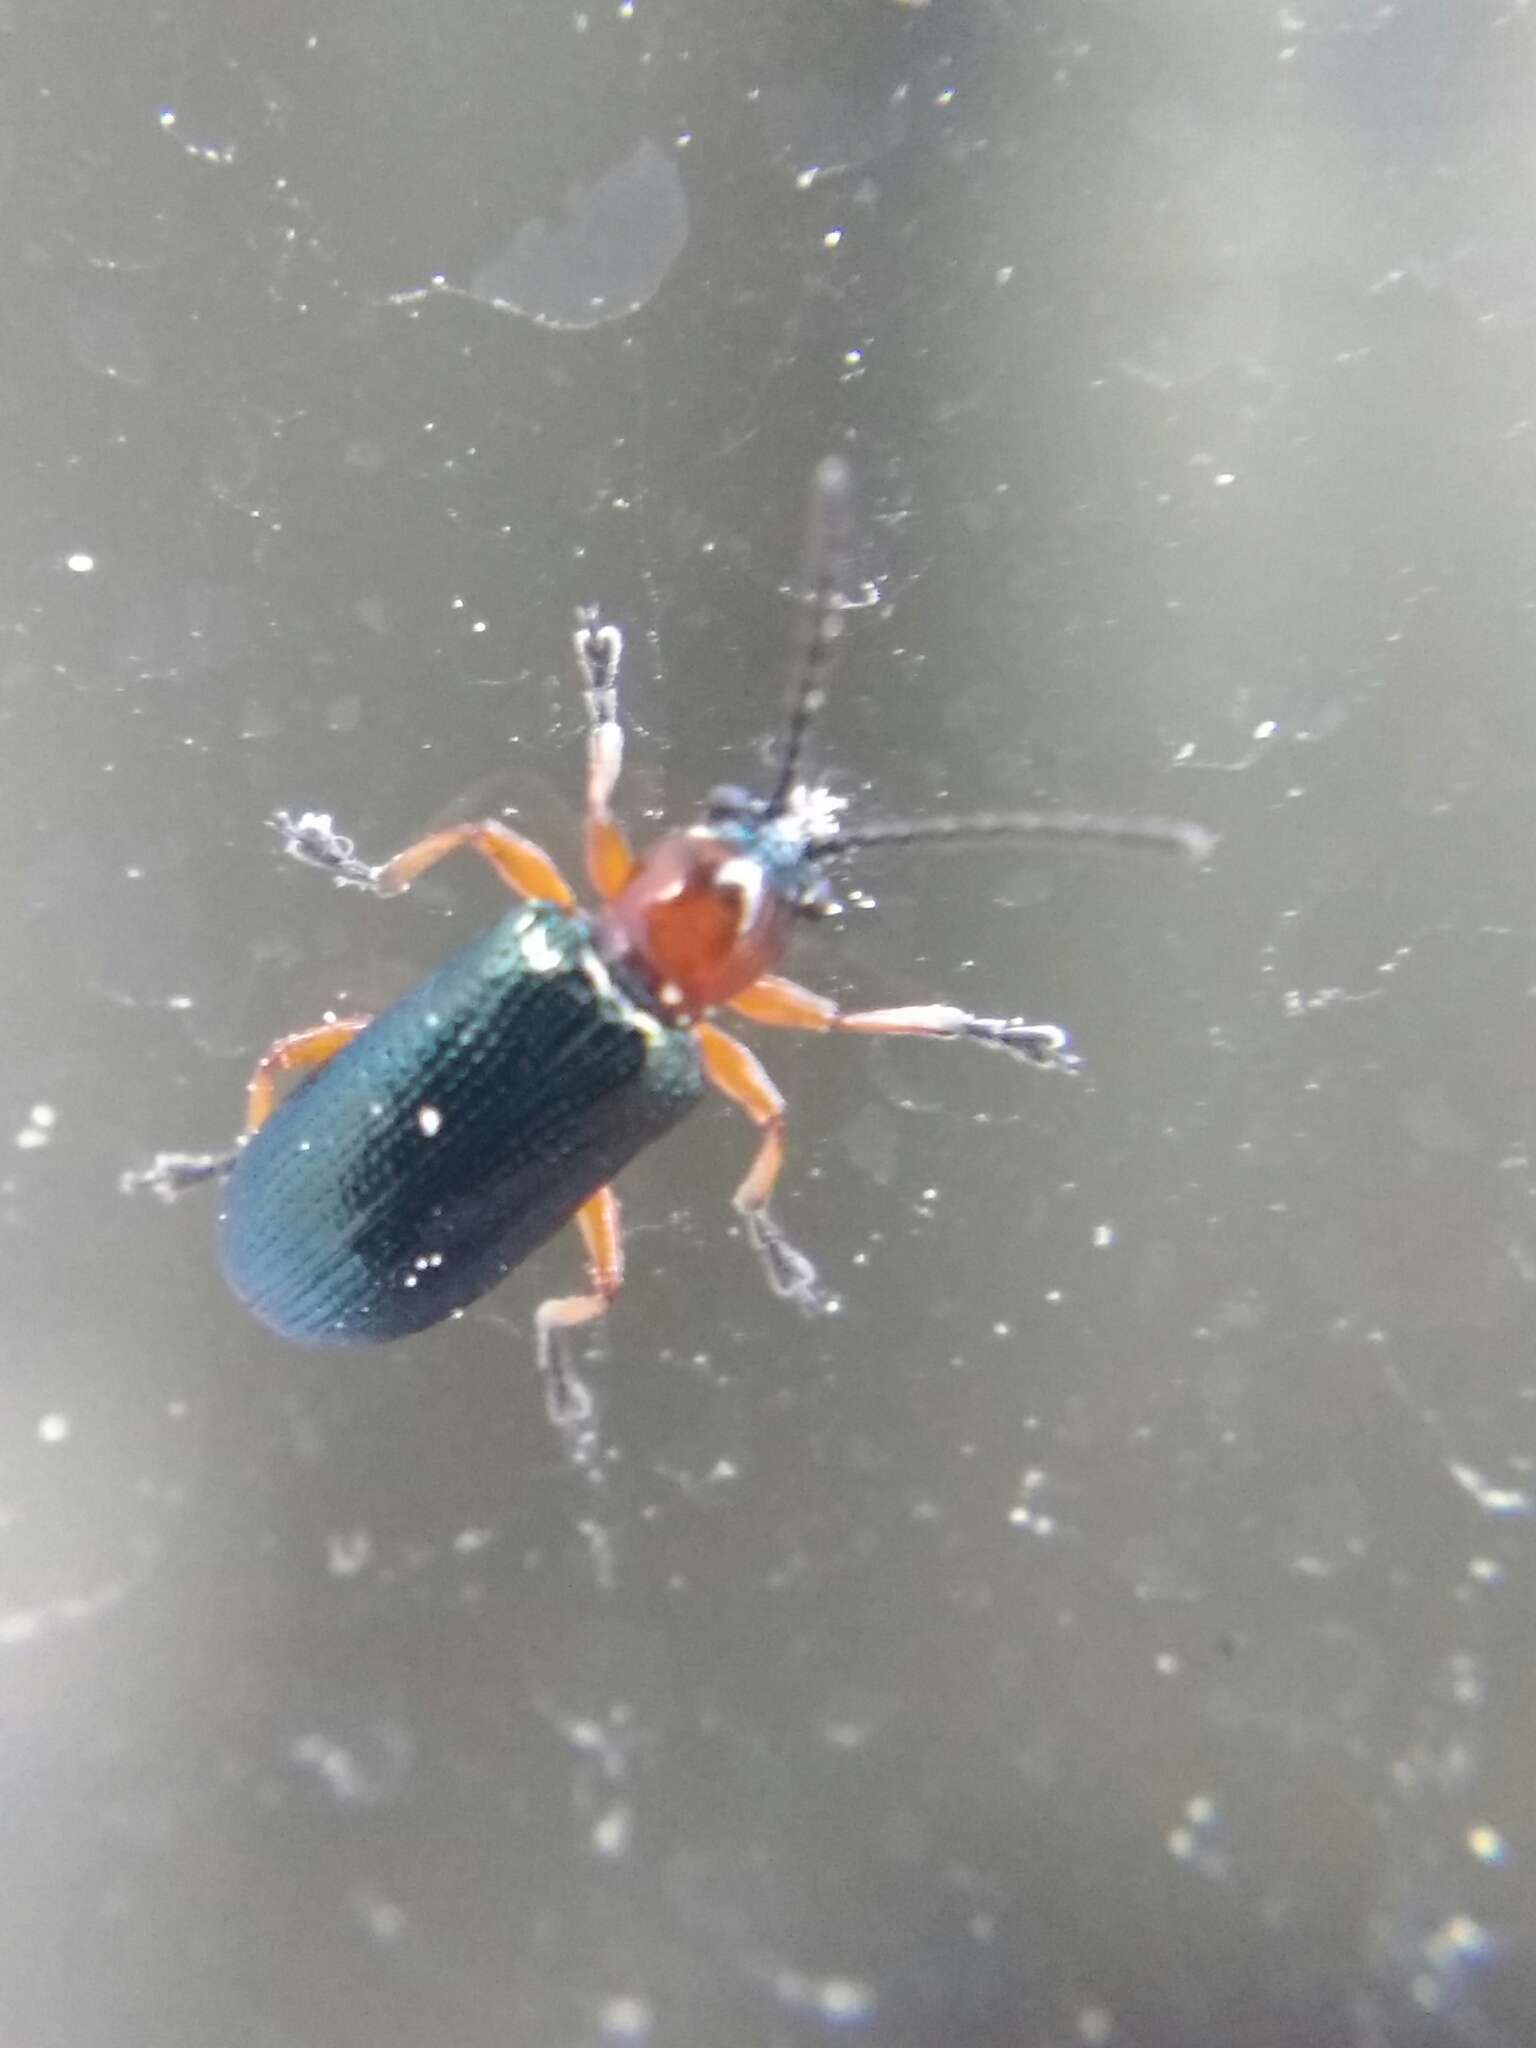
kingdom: Animalia
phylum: Arthropoda
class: Insecta
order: Coleoptera
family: Chrysomelidae
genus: Oulema
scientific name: Oulema
